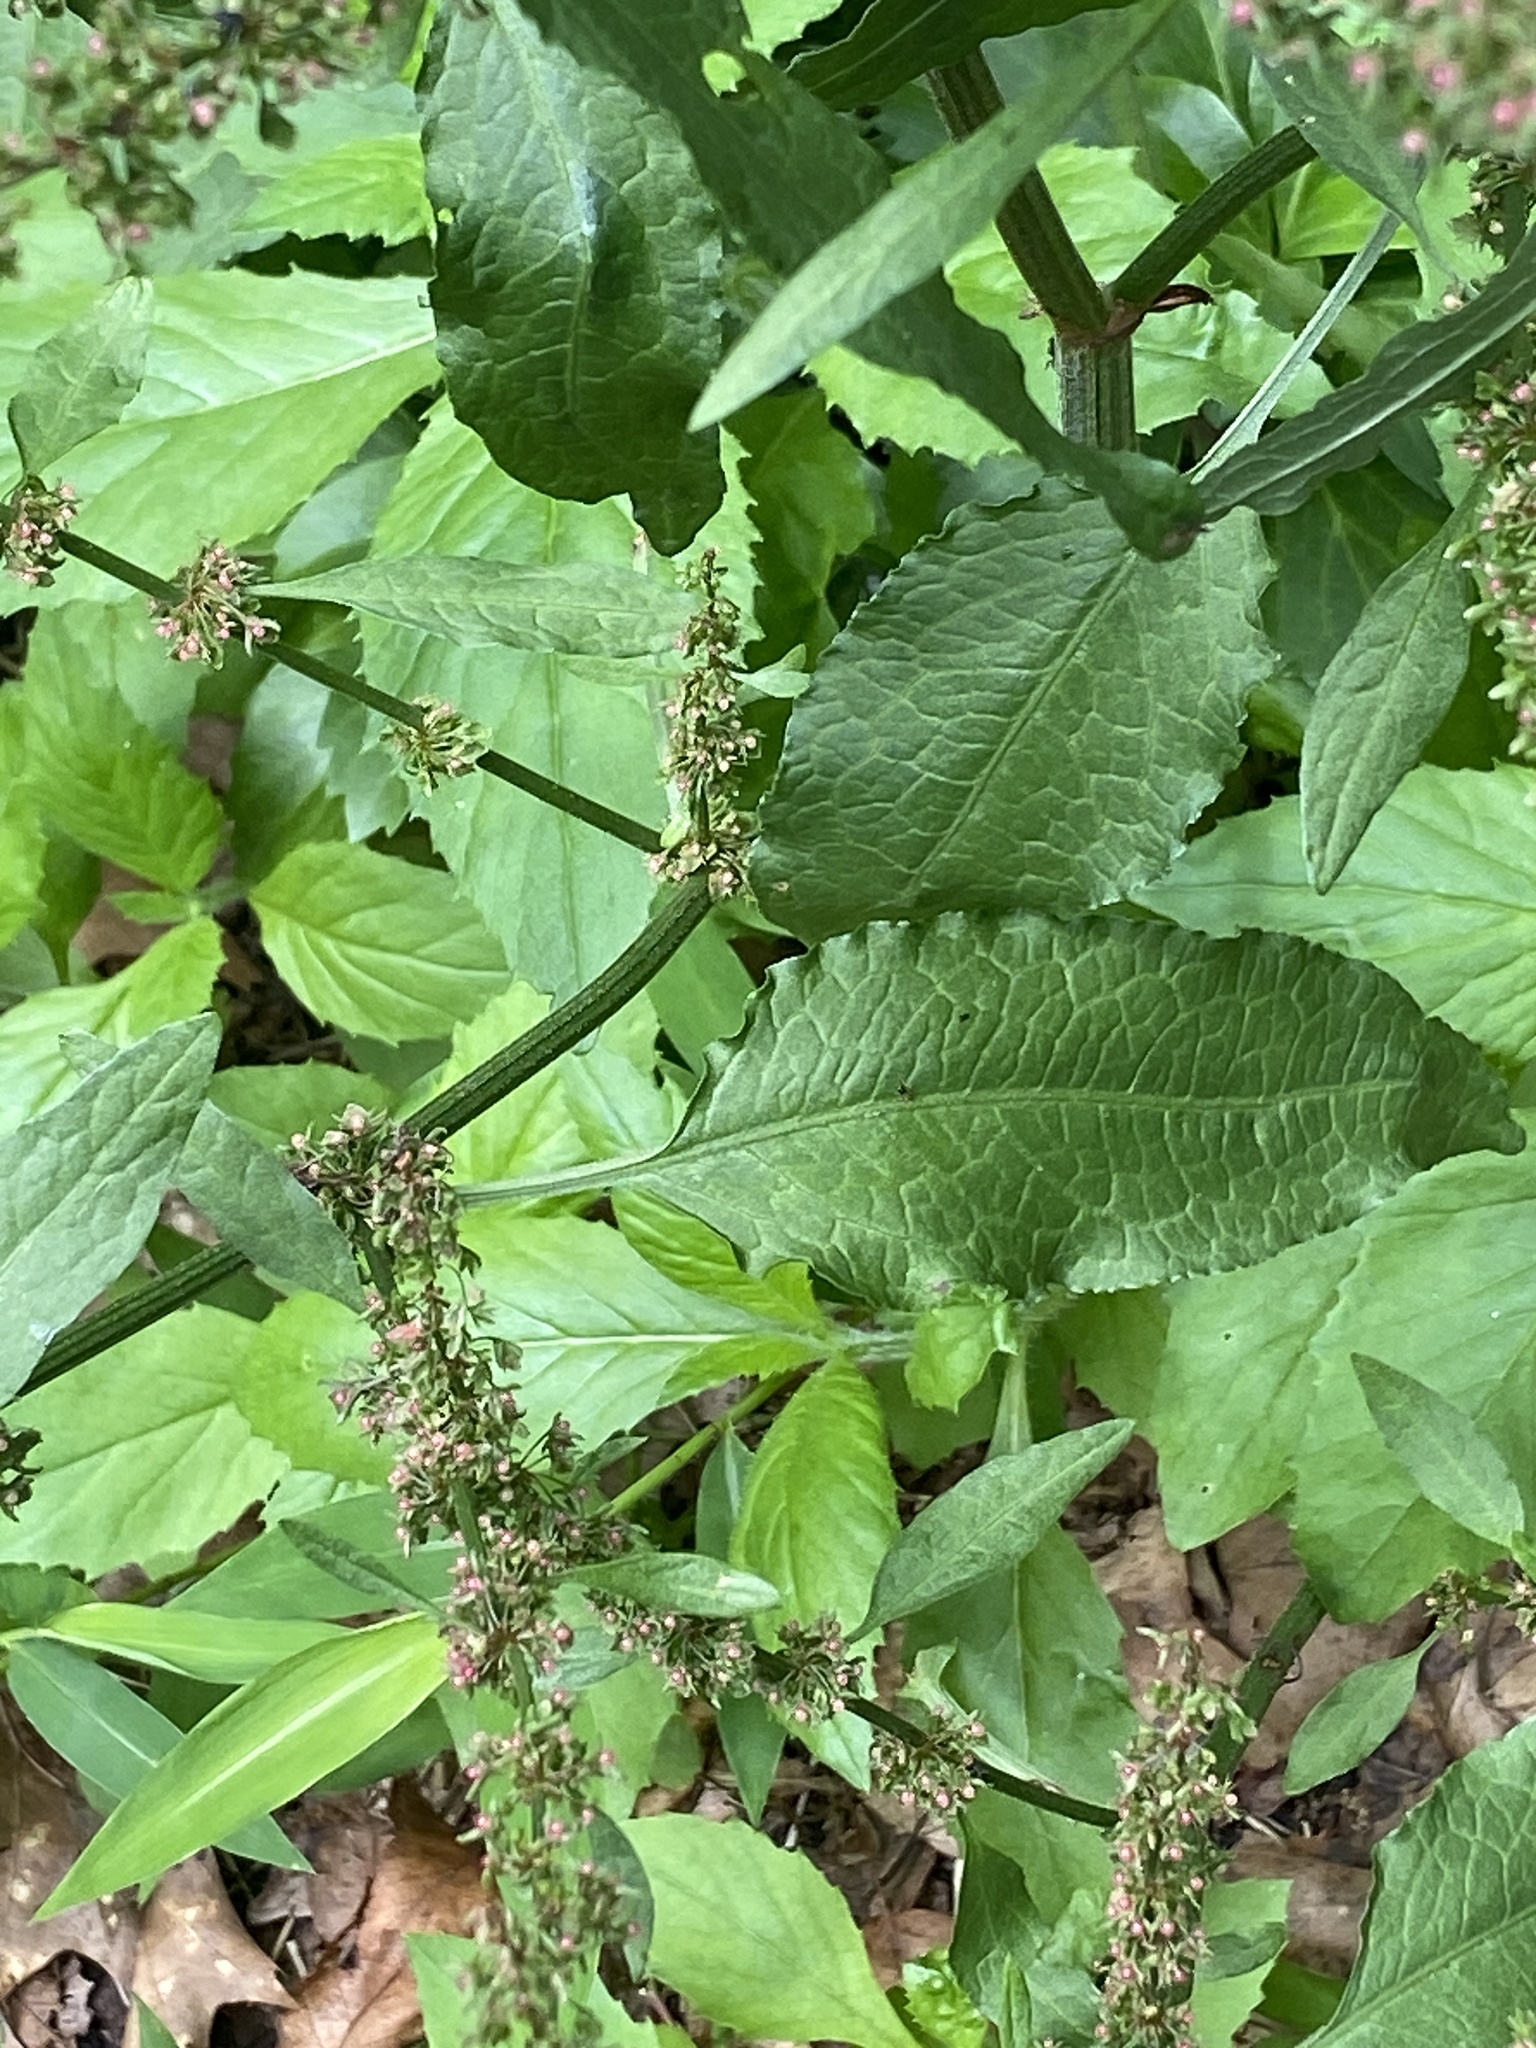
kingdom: Plantae
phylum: Tracheophyta
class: Magnoliopsida
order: Caryophyllales
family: Polygonaceae
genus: Rumex
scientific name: Rumex obtusifolius
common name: Bitter dock
